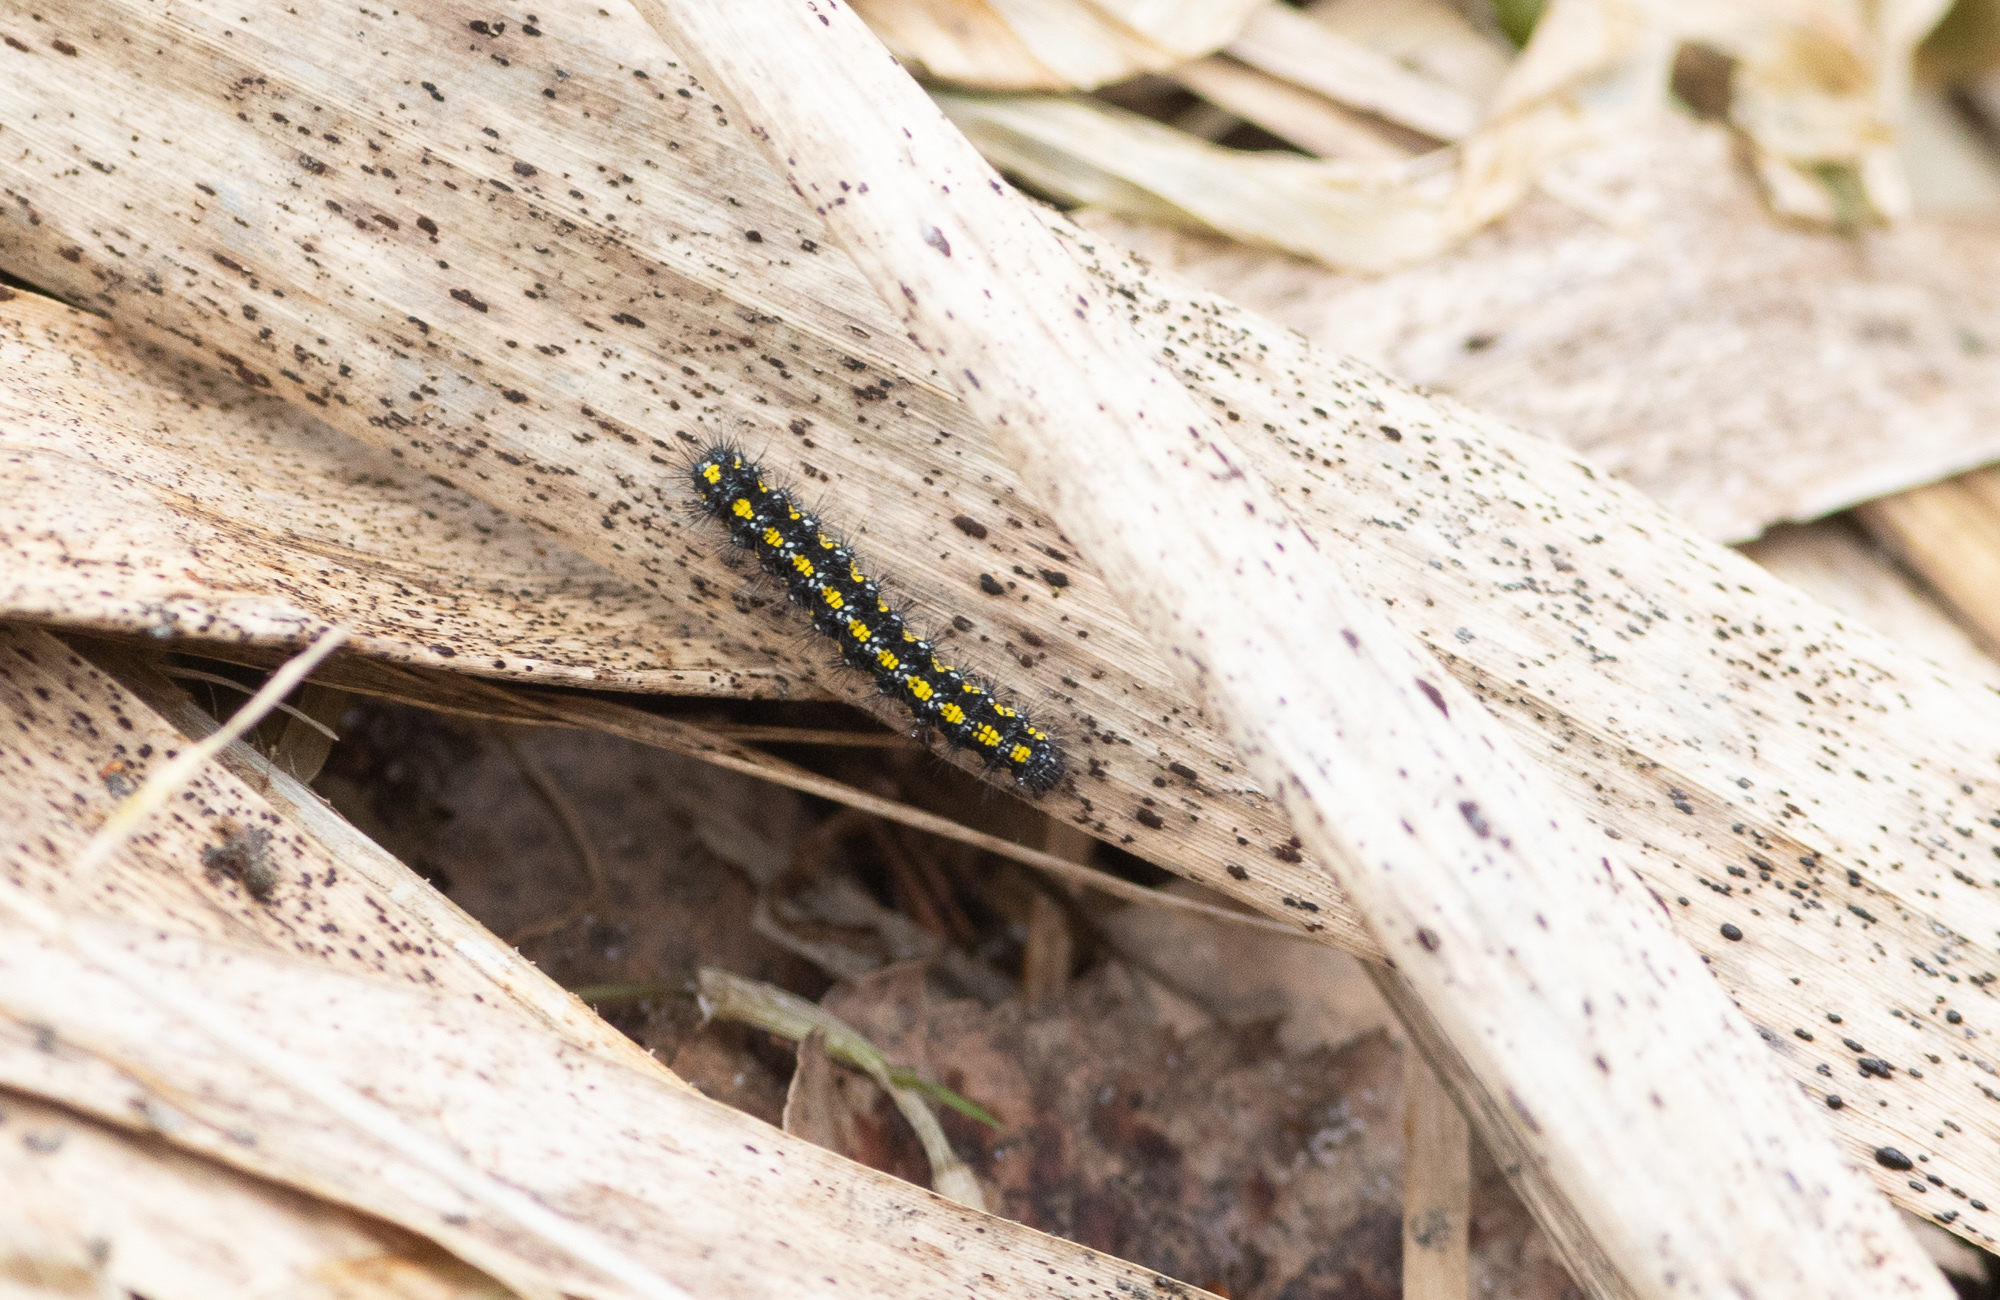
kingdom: Animalia
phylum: Arthropoda
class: Insecta
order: Lepidoptera
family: Erebidae
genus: Callimorpha
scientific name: Callimorpha dominula
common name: Scarlet tiger
